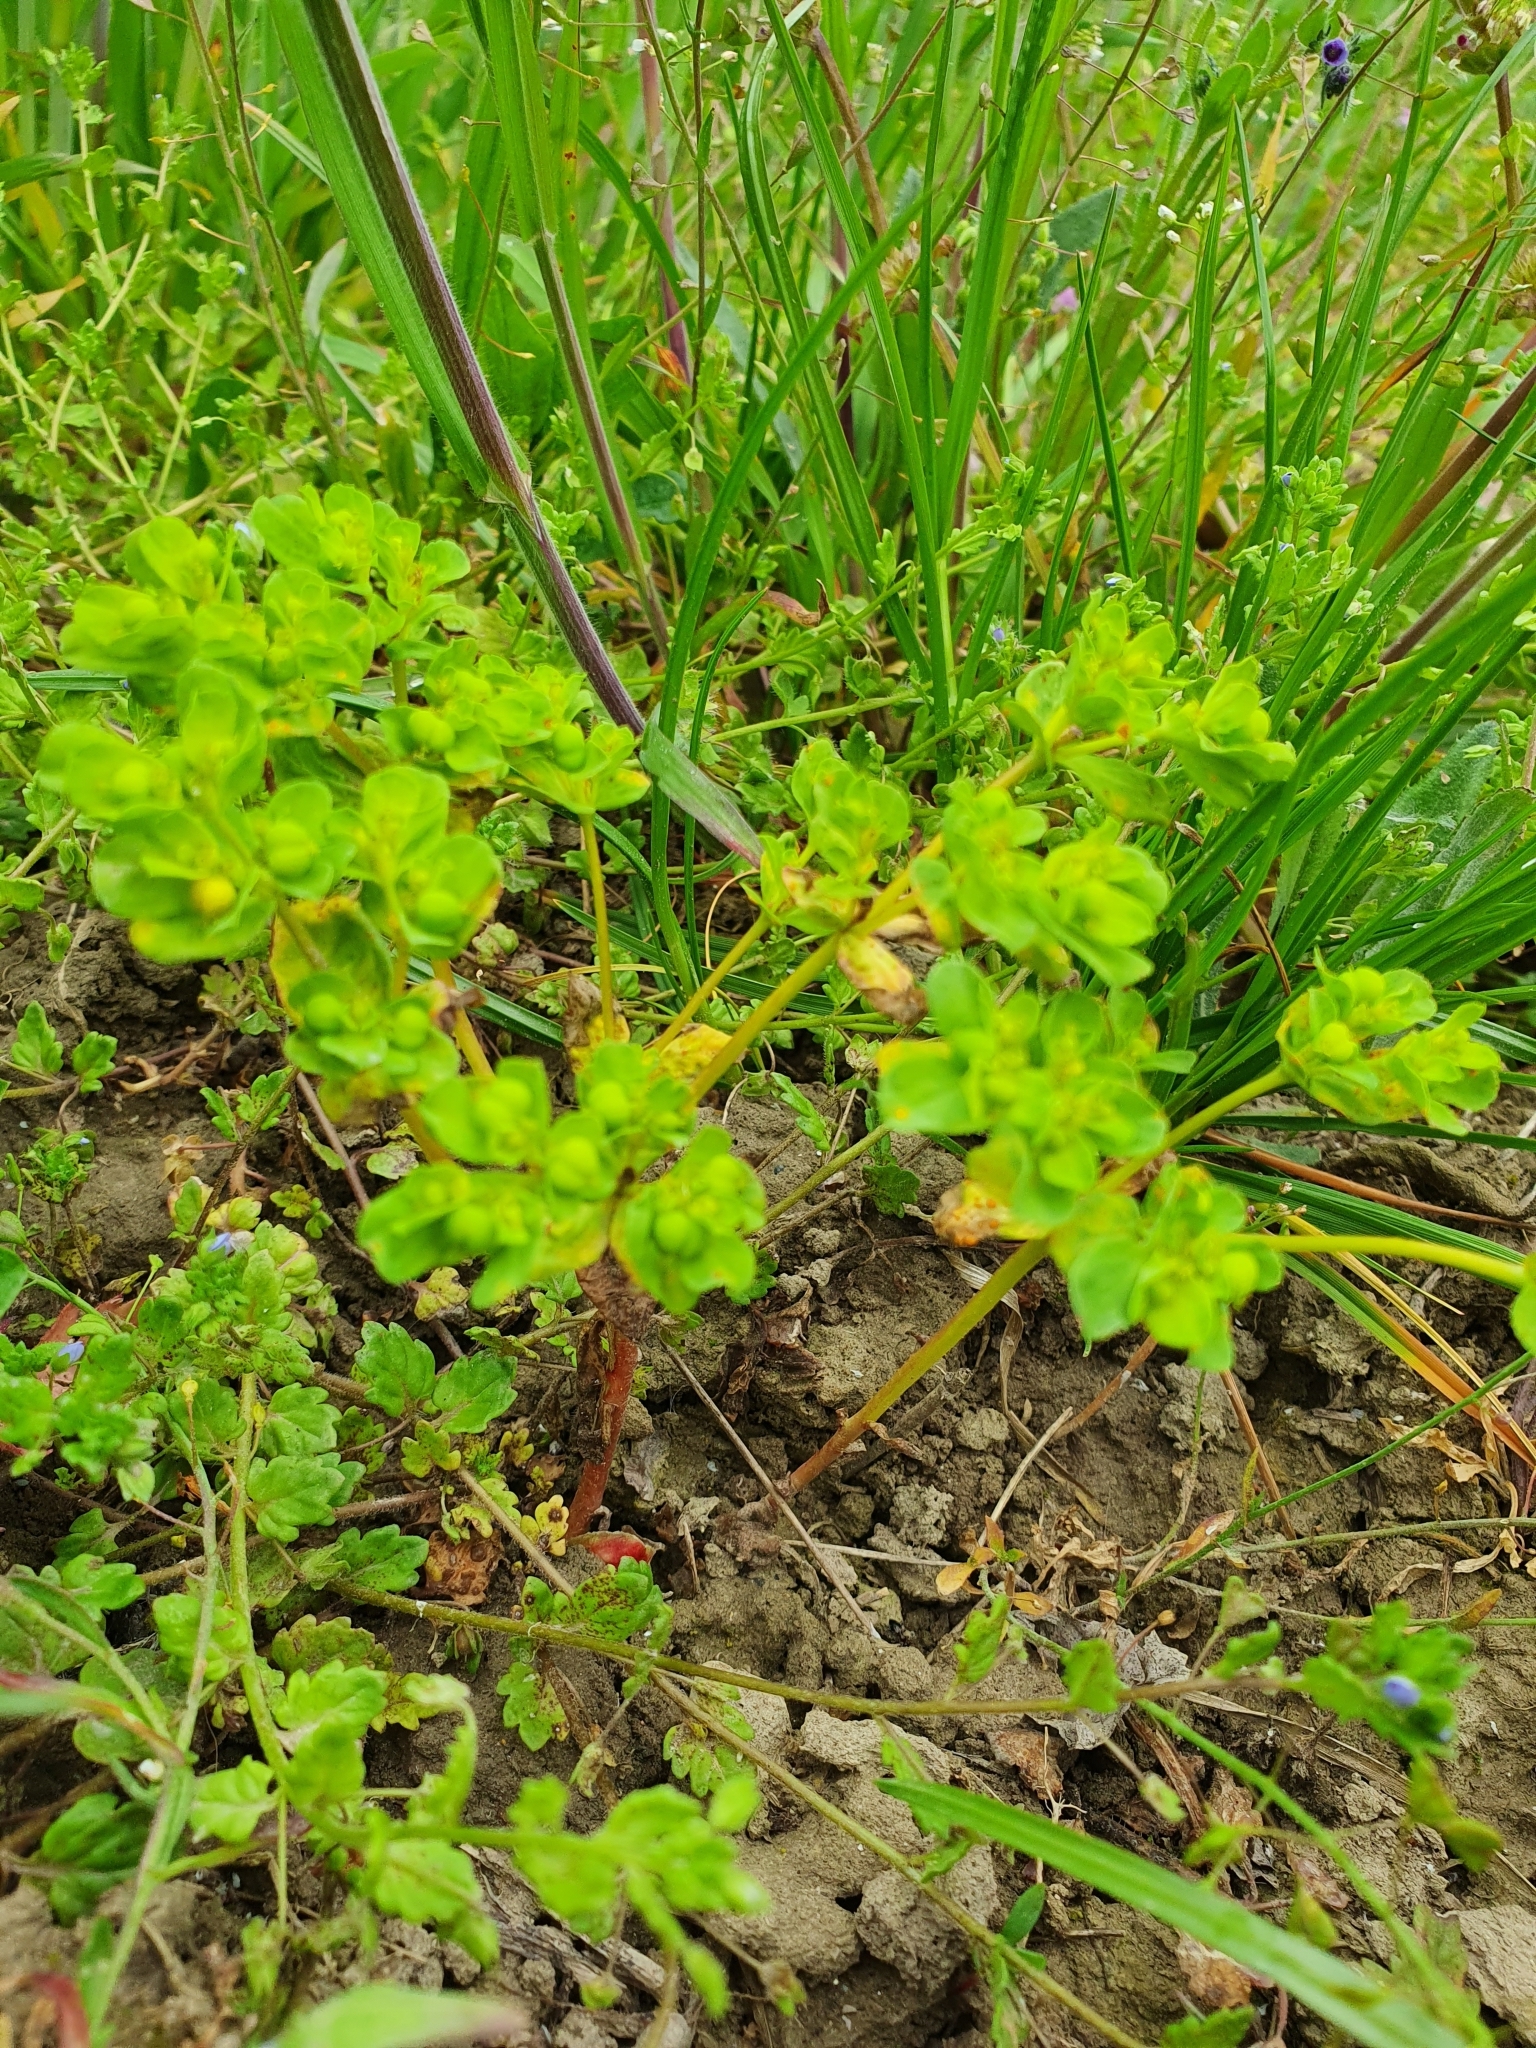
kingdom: Plantae
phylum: Tracheophyta
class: Magnoliopsida
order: Malpighiales
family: Euphorbiaceae
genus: Euphorbia
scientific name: Euphorbia helioscopia
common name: Sun spurge
